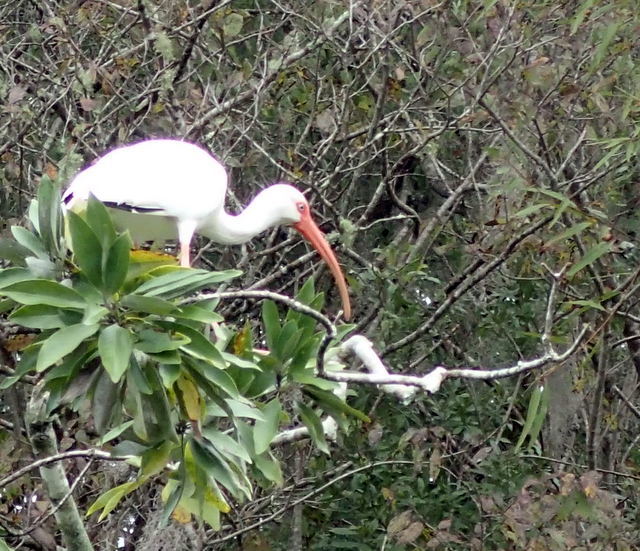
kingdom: Animalia
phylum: Chordata
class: Aves
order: Pelecaniformes
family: Threskiornithidae
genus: Eudocimus
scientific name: Eudocimus albus
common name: White ibis
